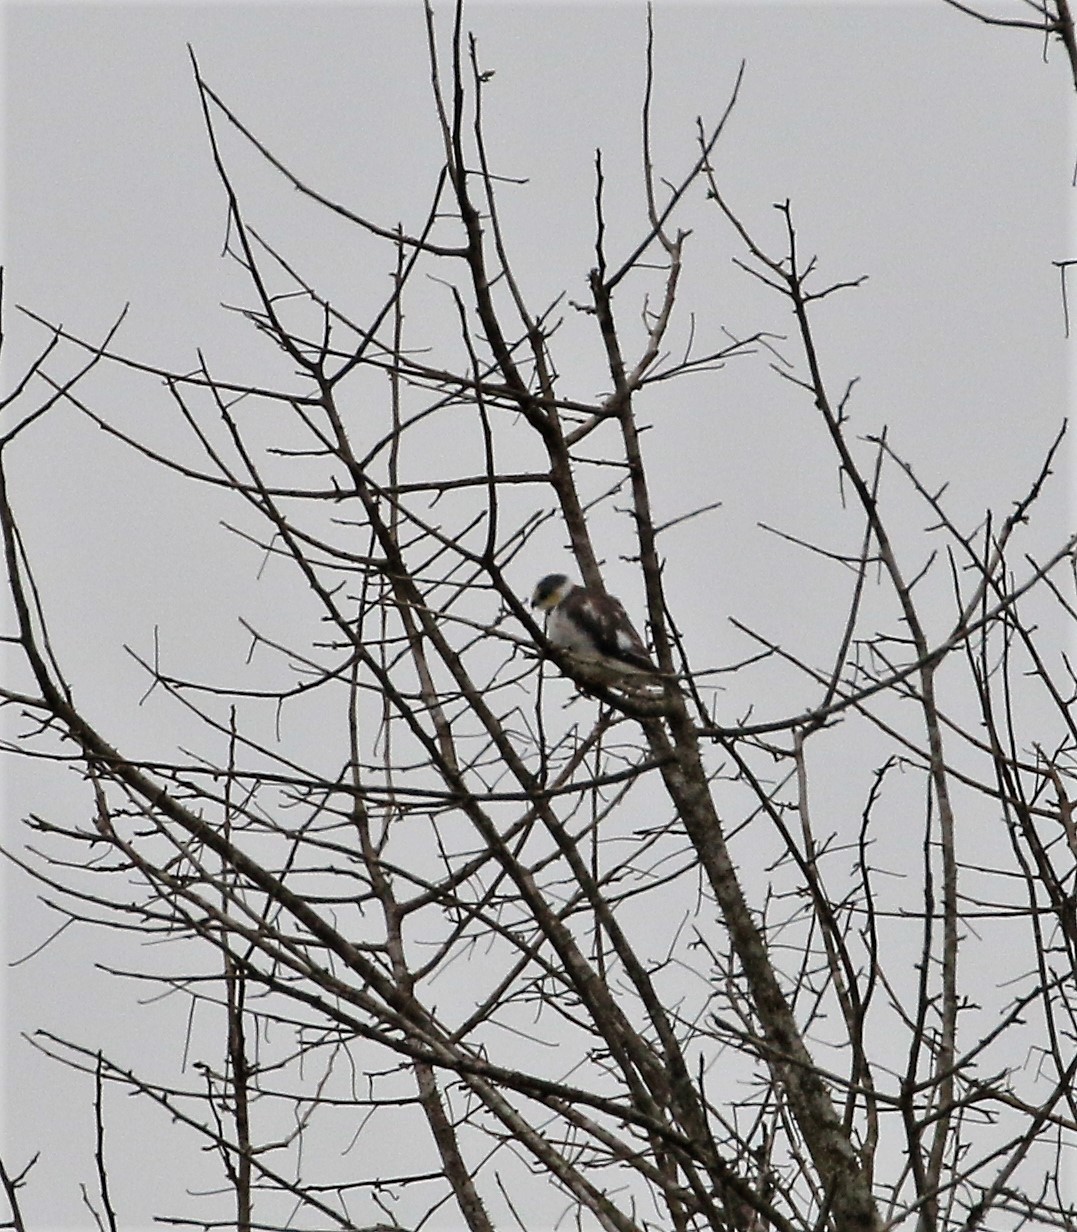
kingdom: Animalia
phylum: Chordata
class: Aves
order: Accipitriformes
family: Accipitridae
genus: Gampsonyx
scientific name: Gampsonyx swainsonii
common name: Pearl kite
